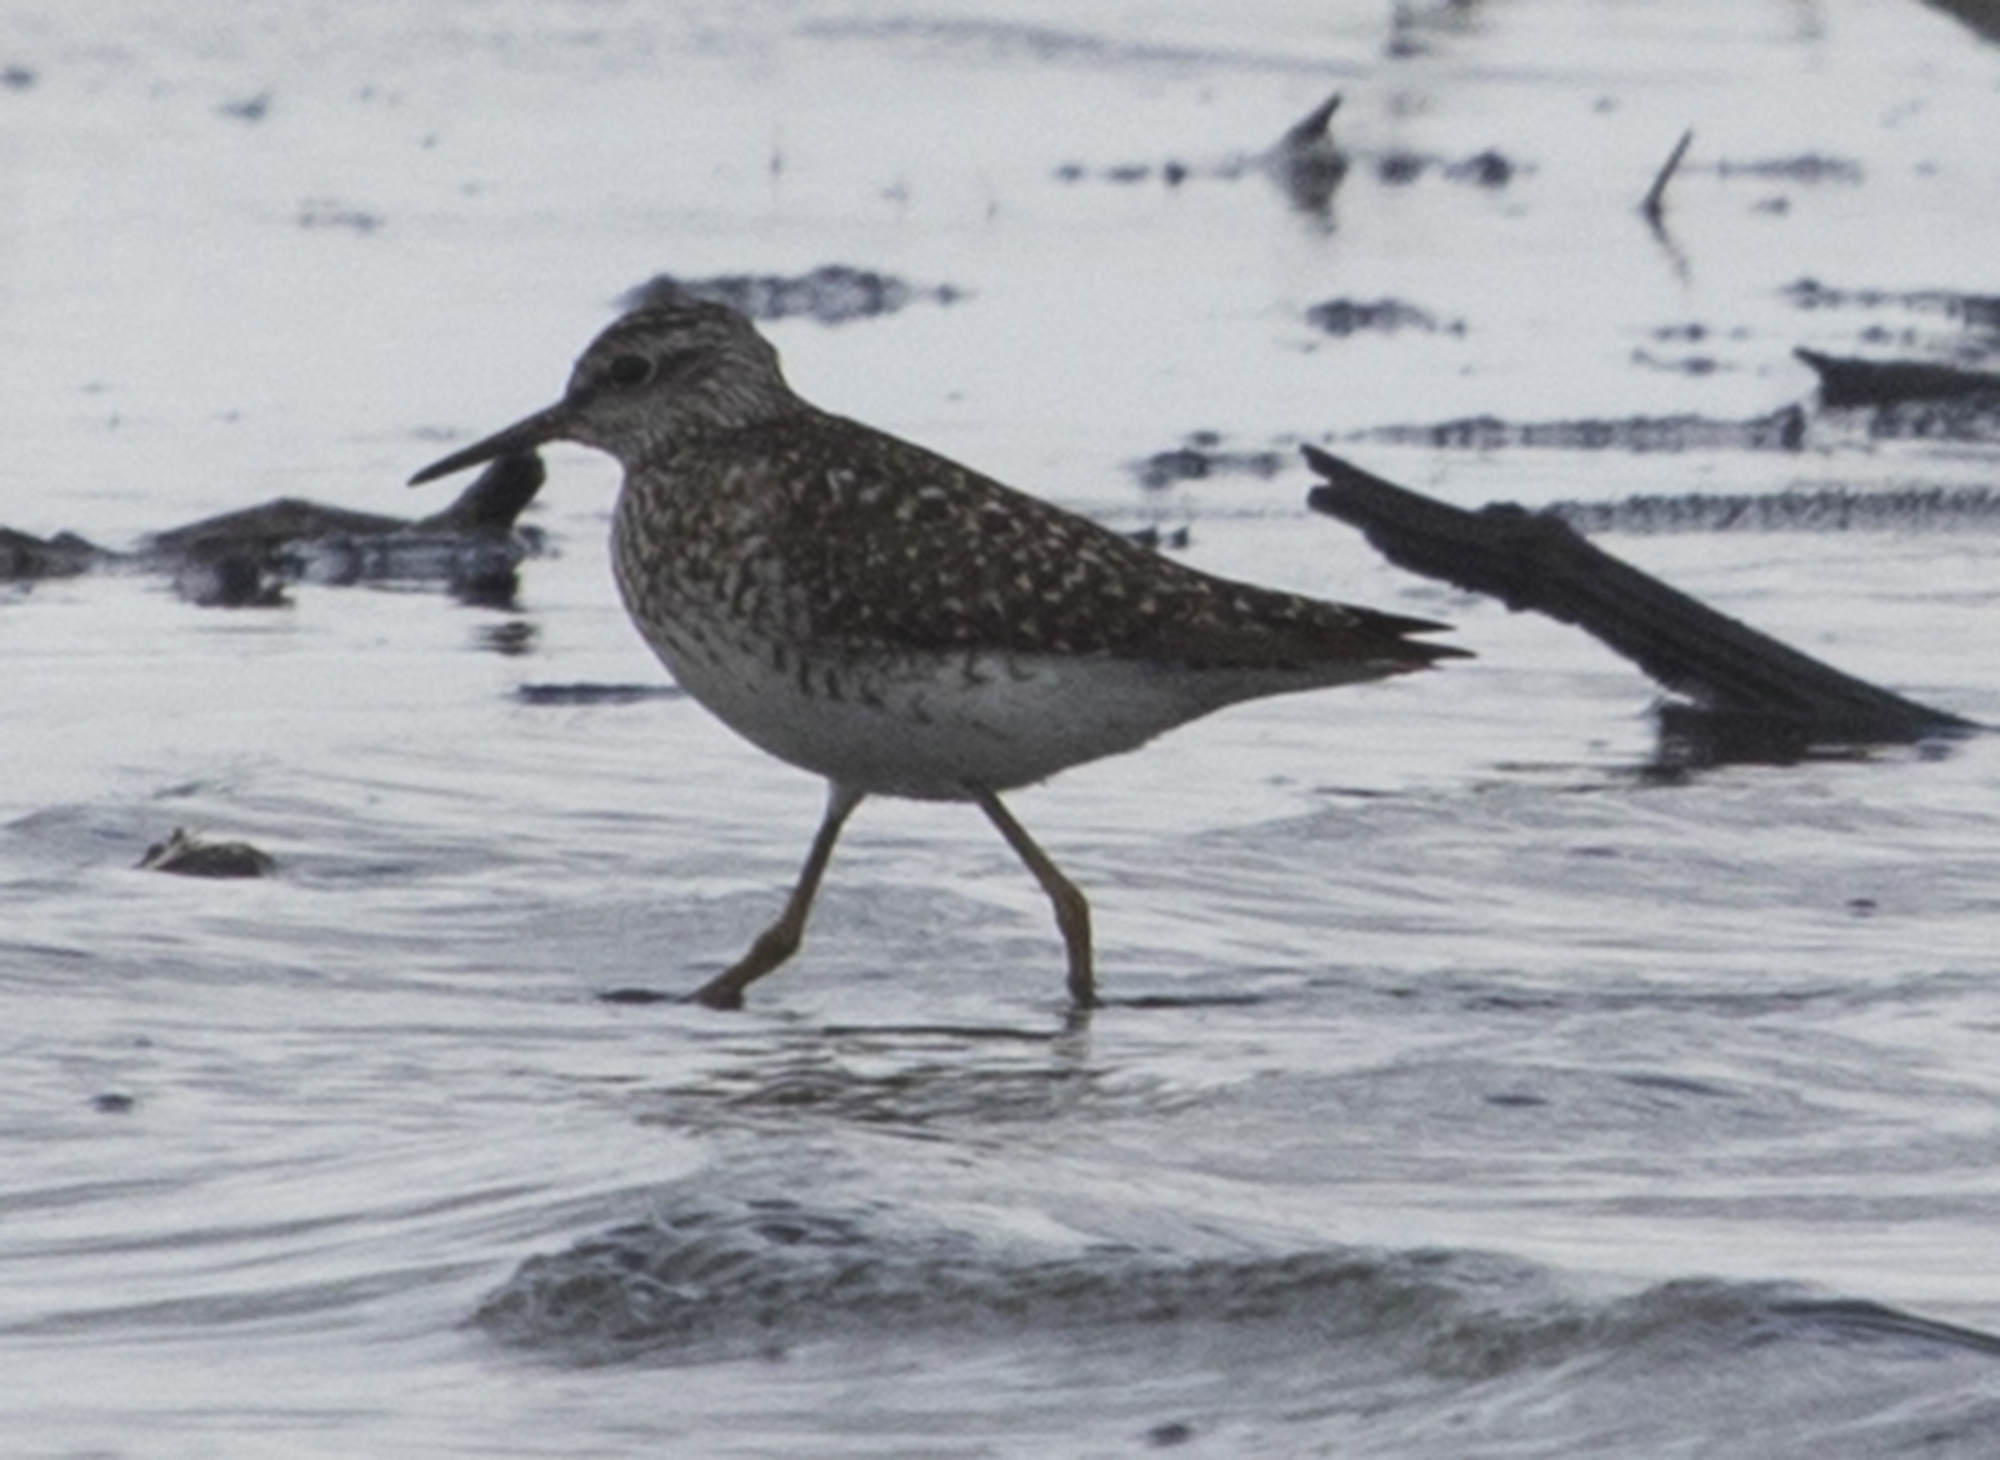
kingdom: Animalia
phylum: Chordata
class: Aves
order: Charadriiformes
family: Scolopacidae
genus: Tringa
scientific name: Tringa glareola
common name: Wood sandpiper
